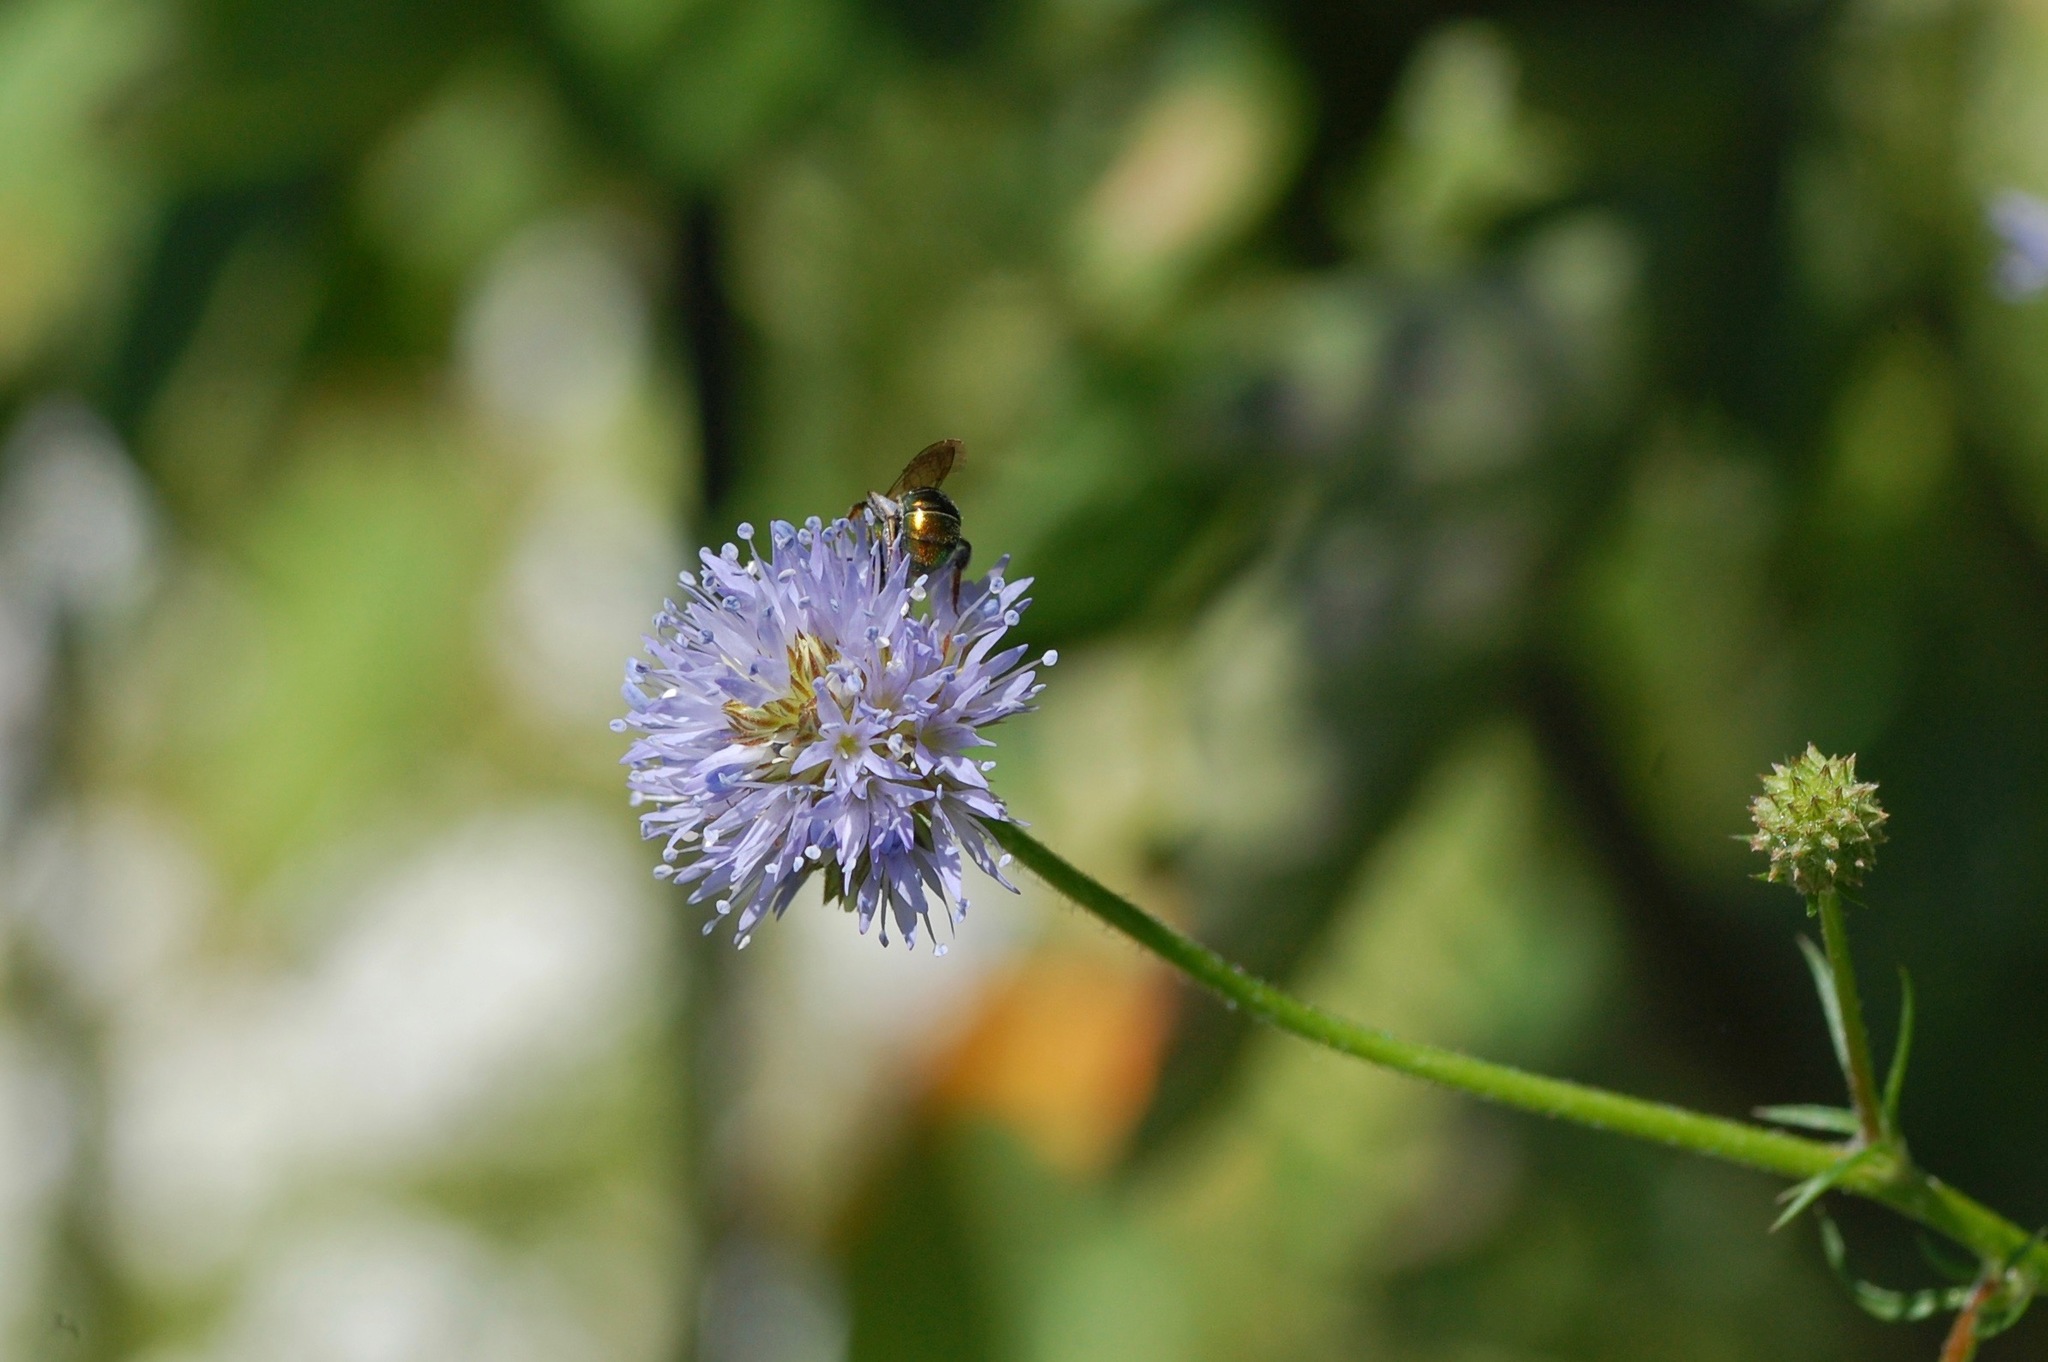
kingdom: Animalia
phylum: Arthropoda
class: Insecta
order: Hymenoptera
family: Halictidae
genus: Augochlora
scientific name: Augochlora pura
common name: Pure green sweat bee
